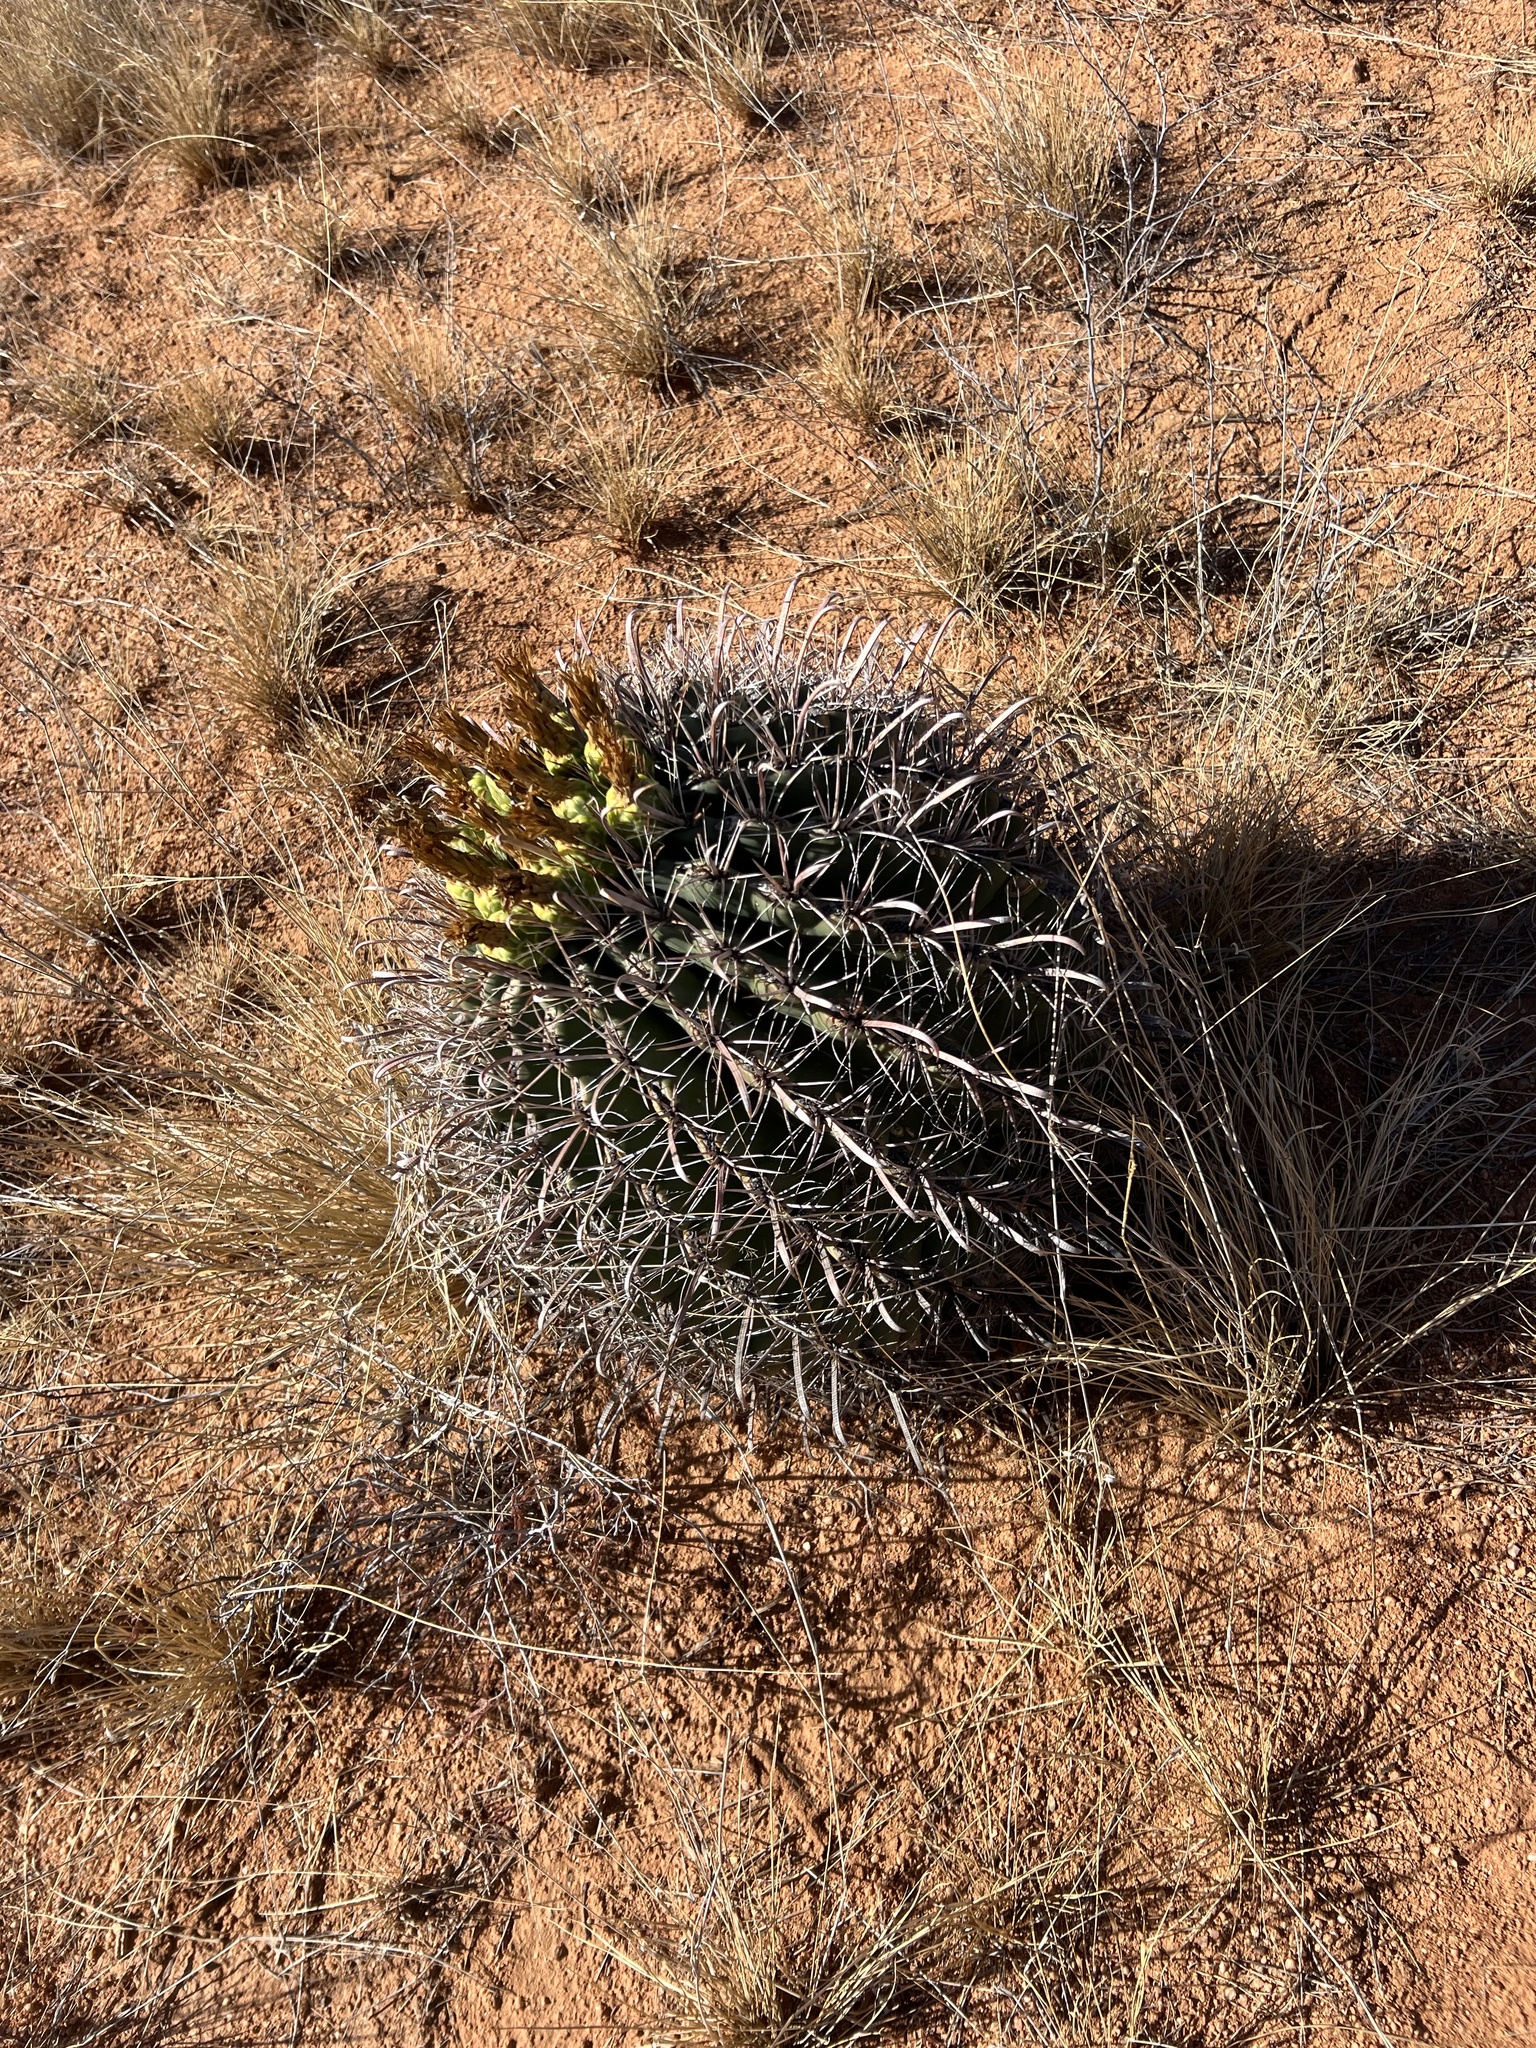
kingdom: Plantae
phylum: Tracheophyta
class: Magnoliopsida
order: Caryophyllales
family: Cactaceae
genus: Ferocactus
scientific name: Ferocactus wislizeni
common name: Candy barrel cactus
